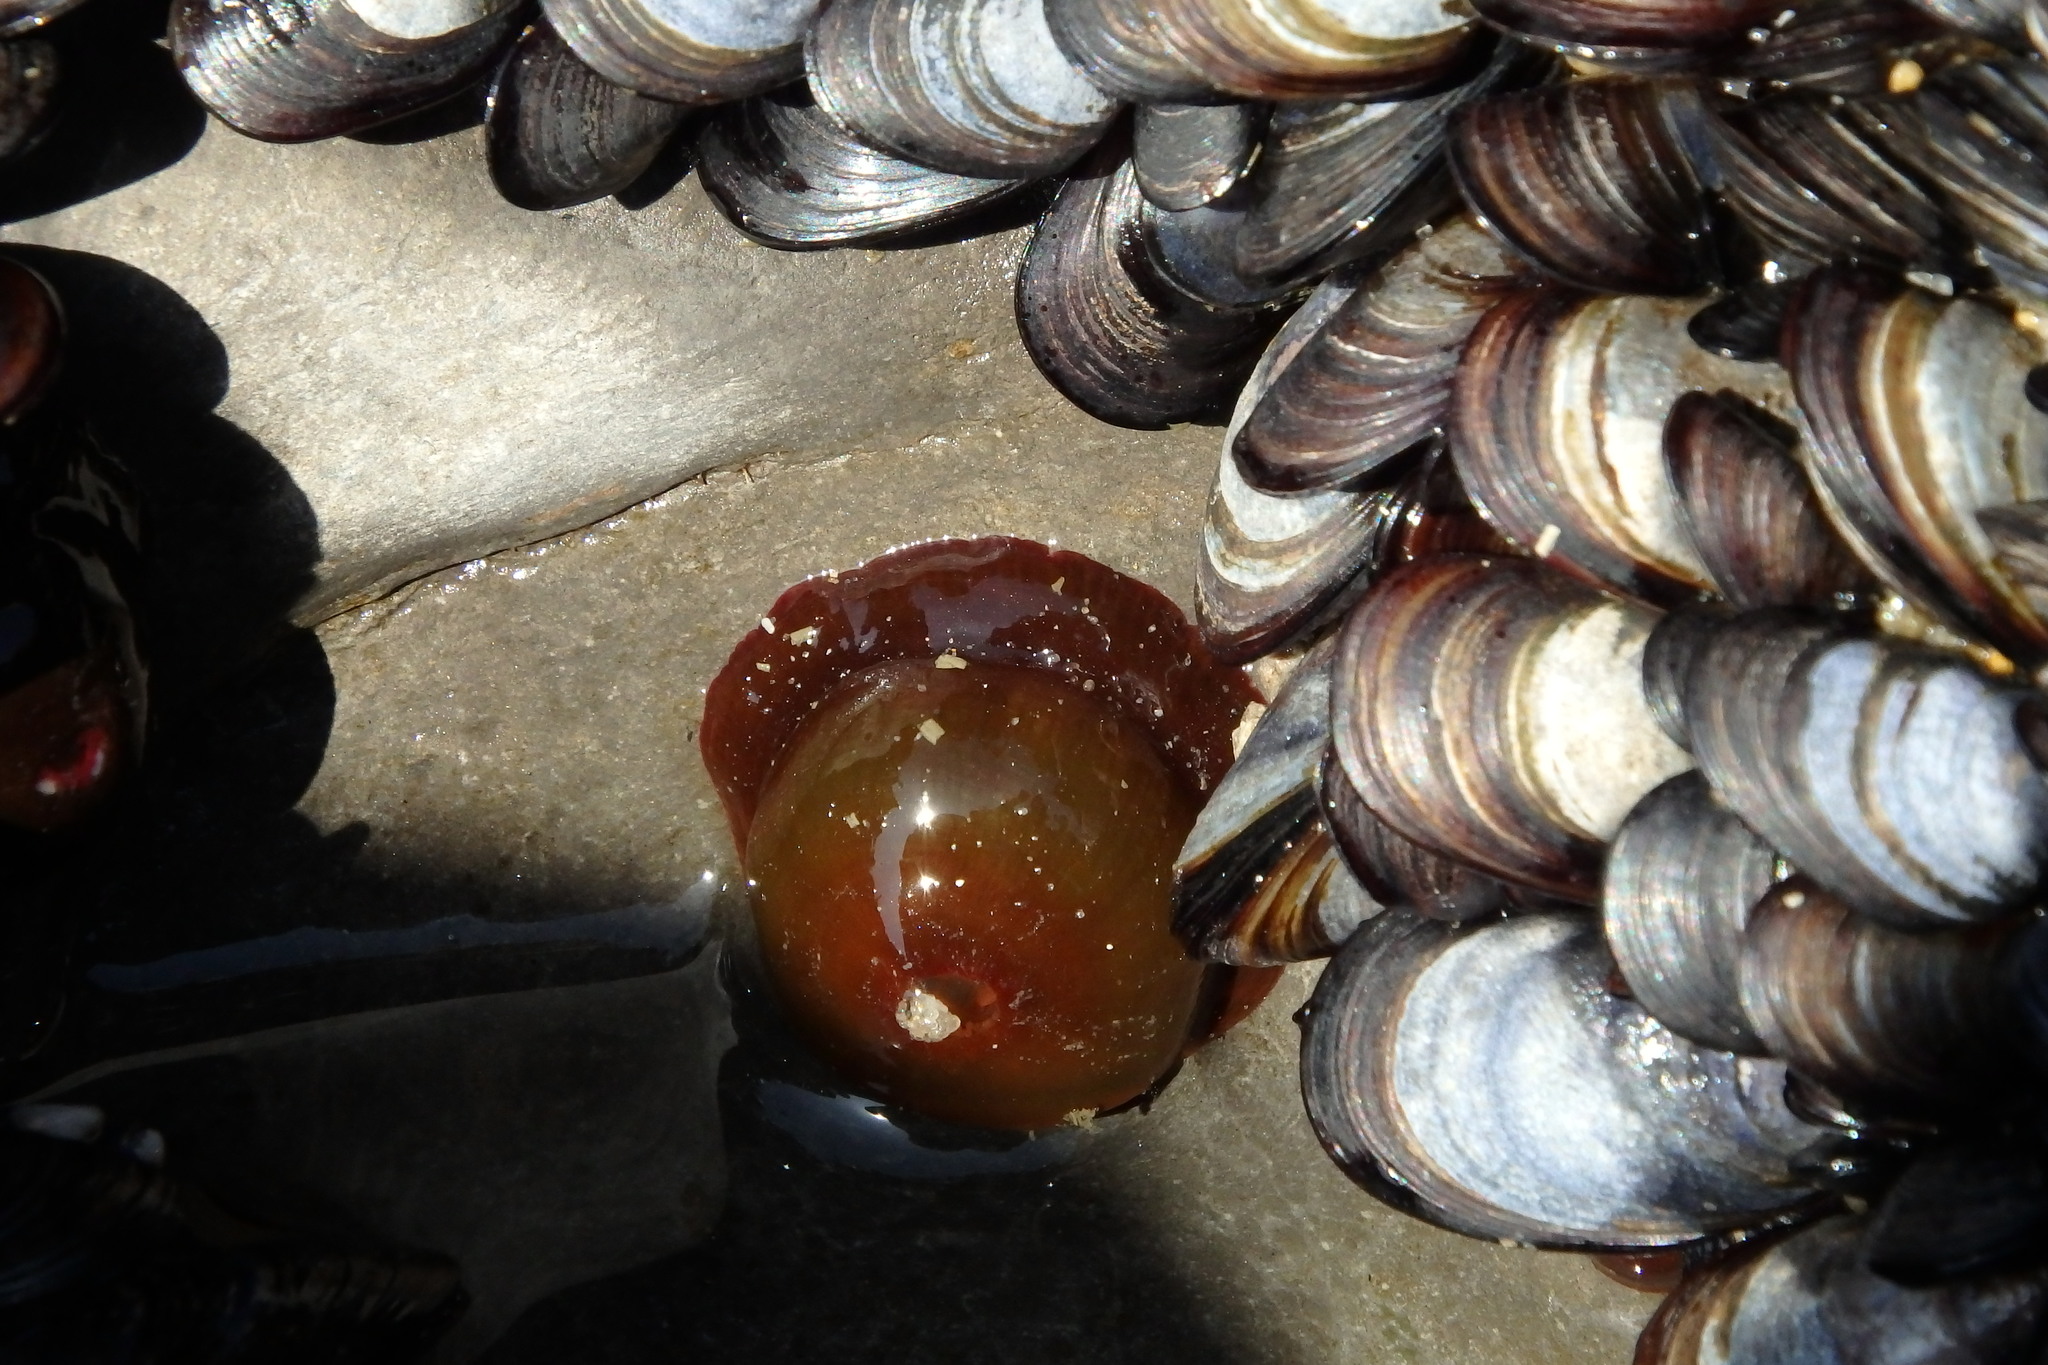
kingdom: Animalia
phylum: Cnidaria
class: Anthozoa
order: Actiniaria
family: Actiniidae
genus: Actinia
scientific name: Actinia equina
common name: Beadlet anemone
